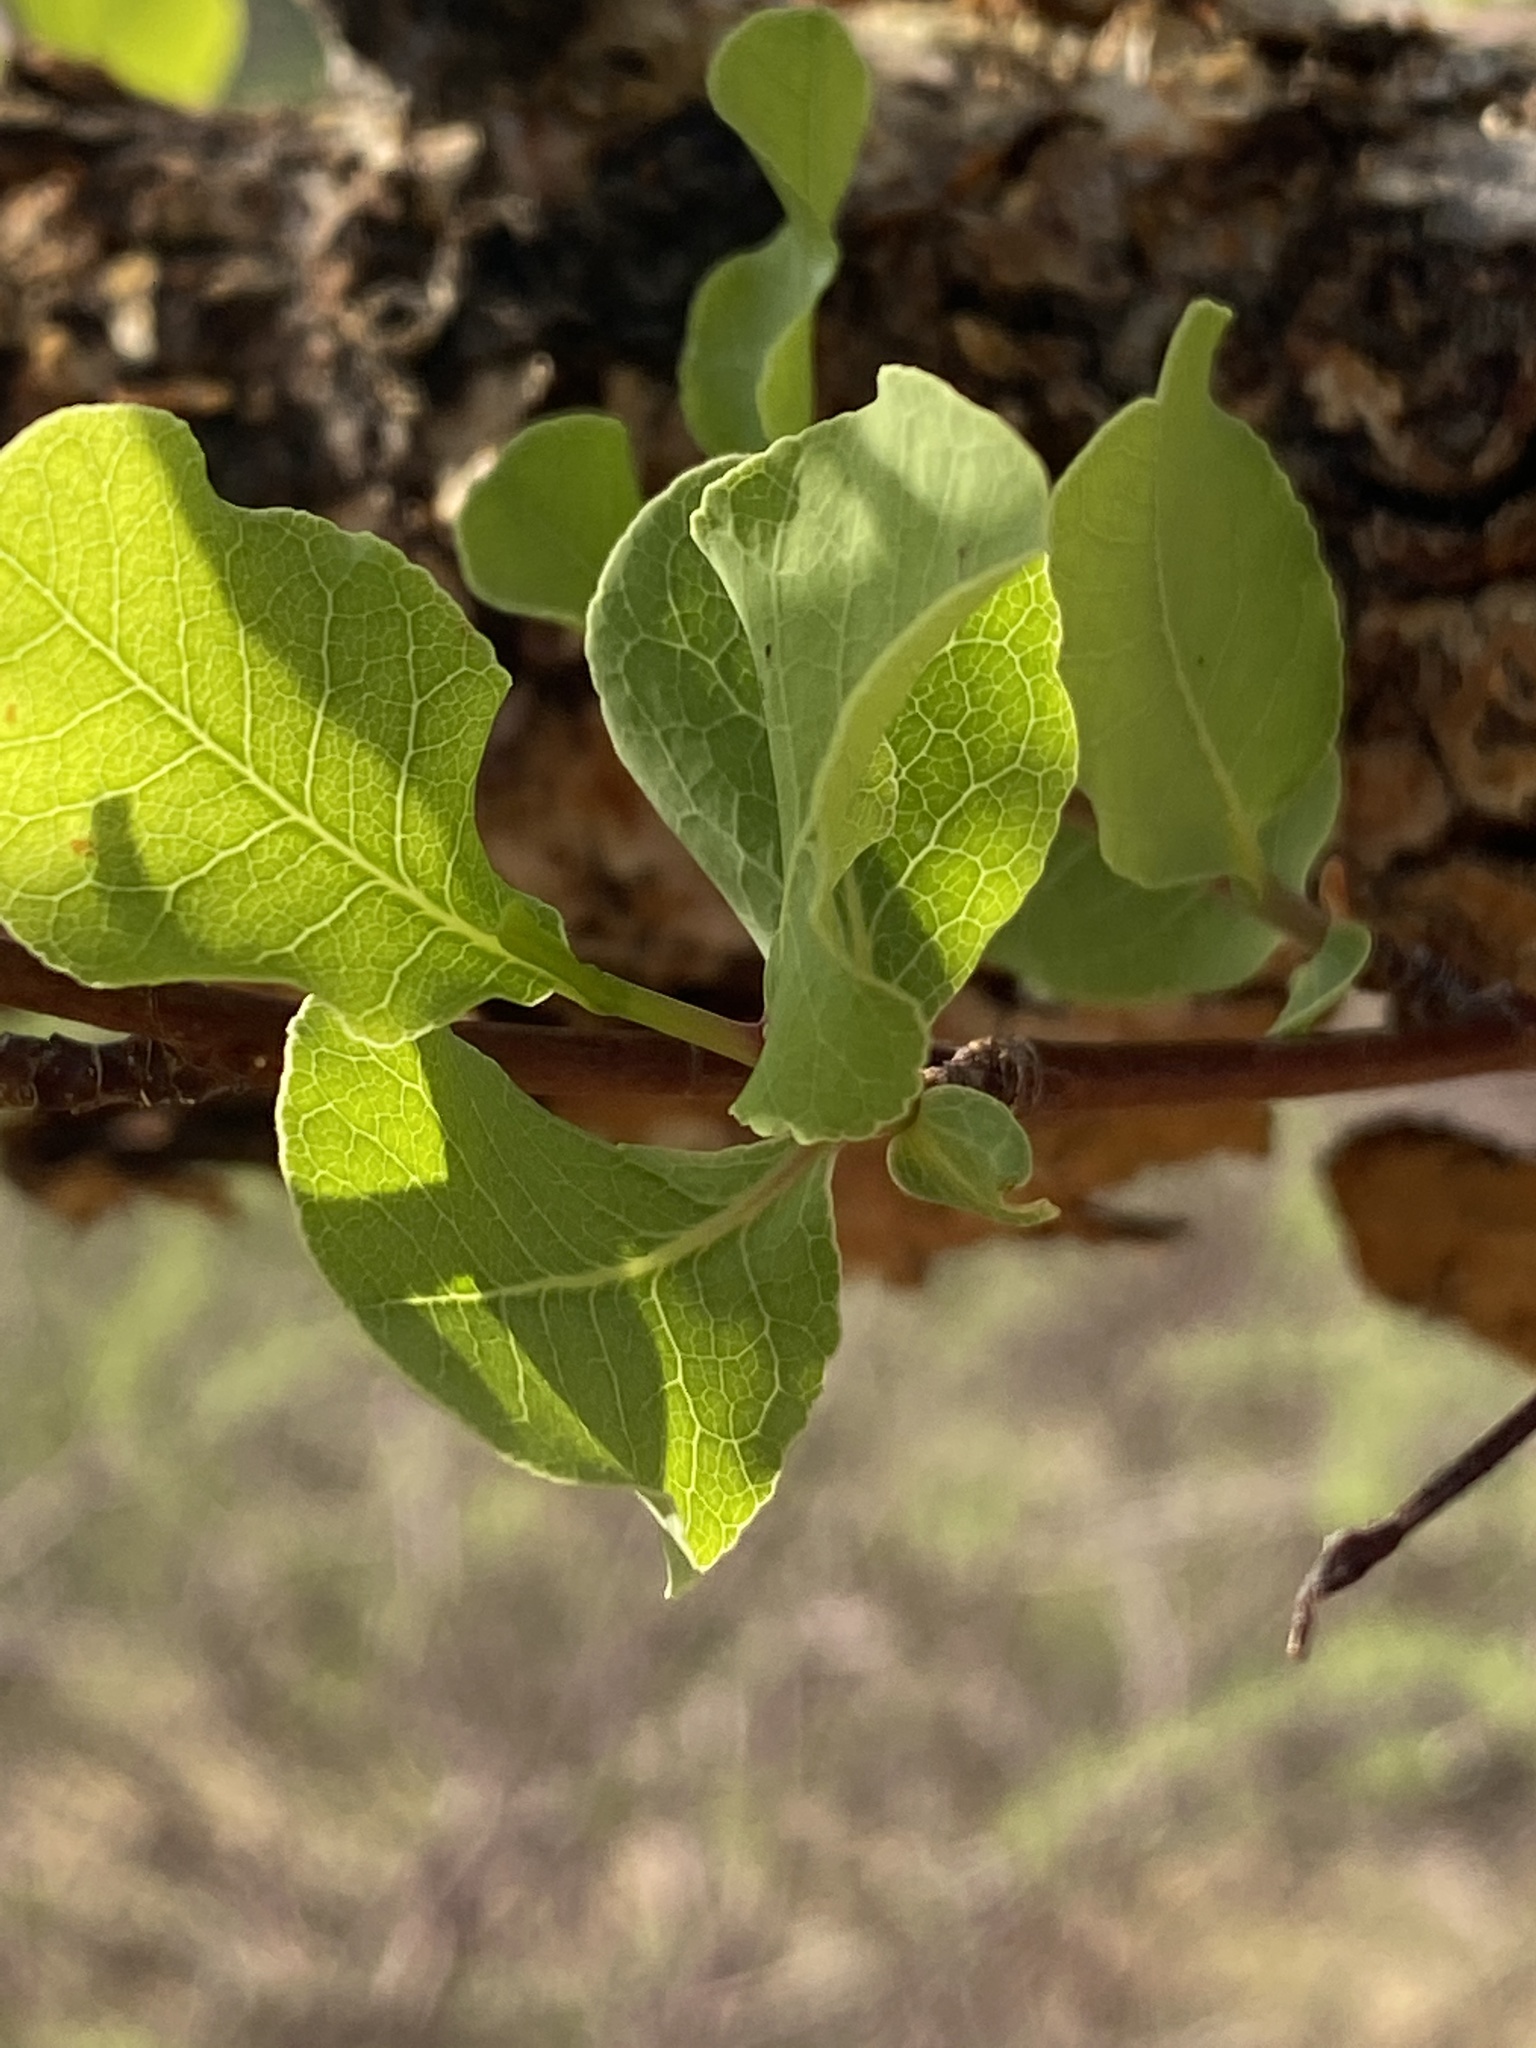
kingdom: Plantae
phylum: Tracheophyta
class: Magnoliopsida
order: Sapindales
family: Burseraceae
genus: Commiphora
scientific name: Commiphora glaucescens
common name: Blue-leaved corkwood
